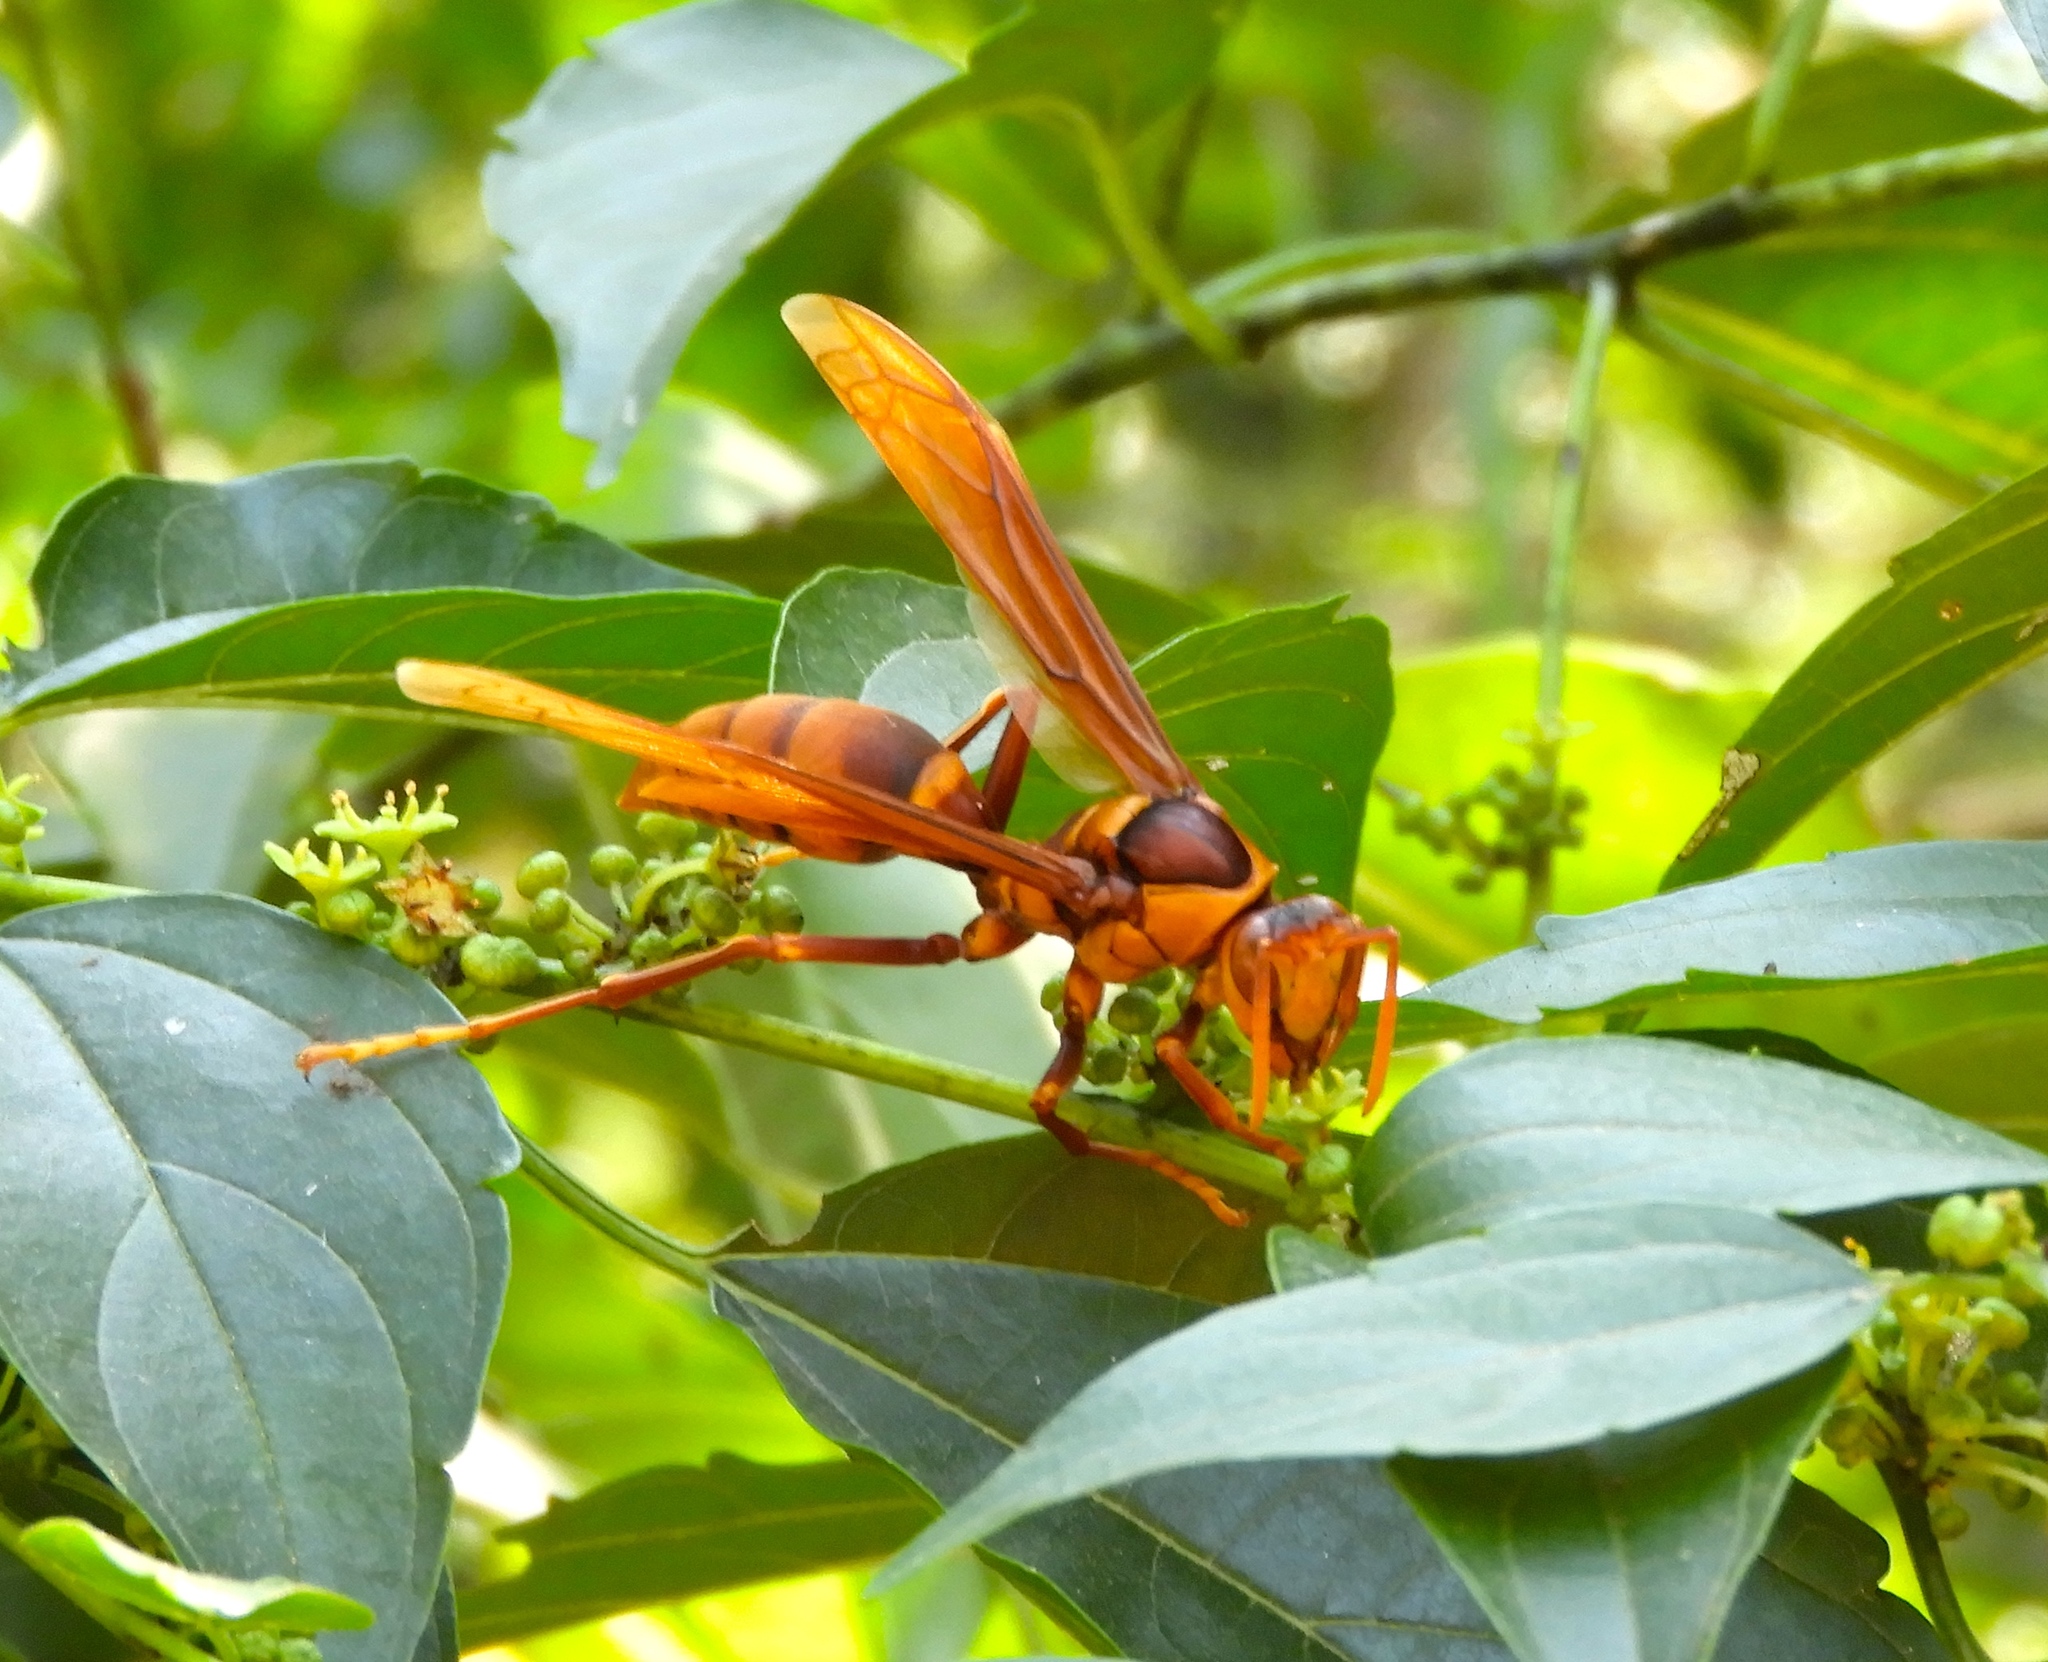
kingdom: Animalia
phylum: Arthropoda
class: Insecta
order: Hymenoptera
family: Eumenidae
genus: Polistes
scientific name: Polistes carnifex
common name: Paper wasp
